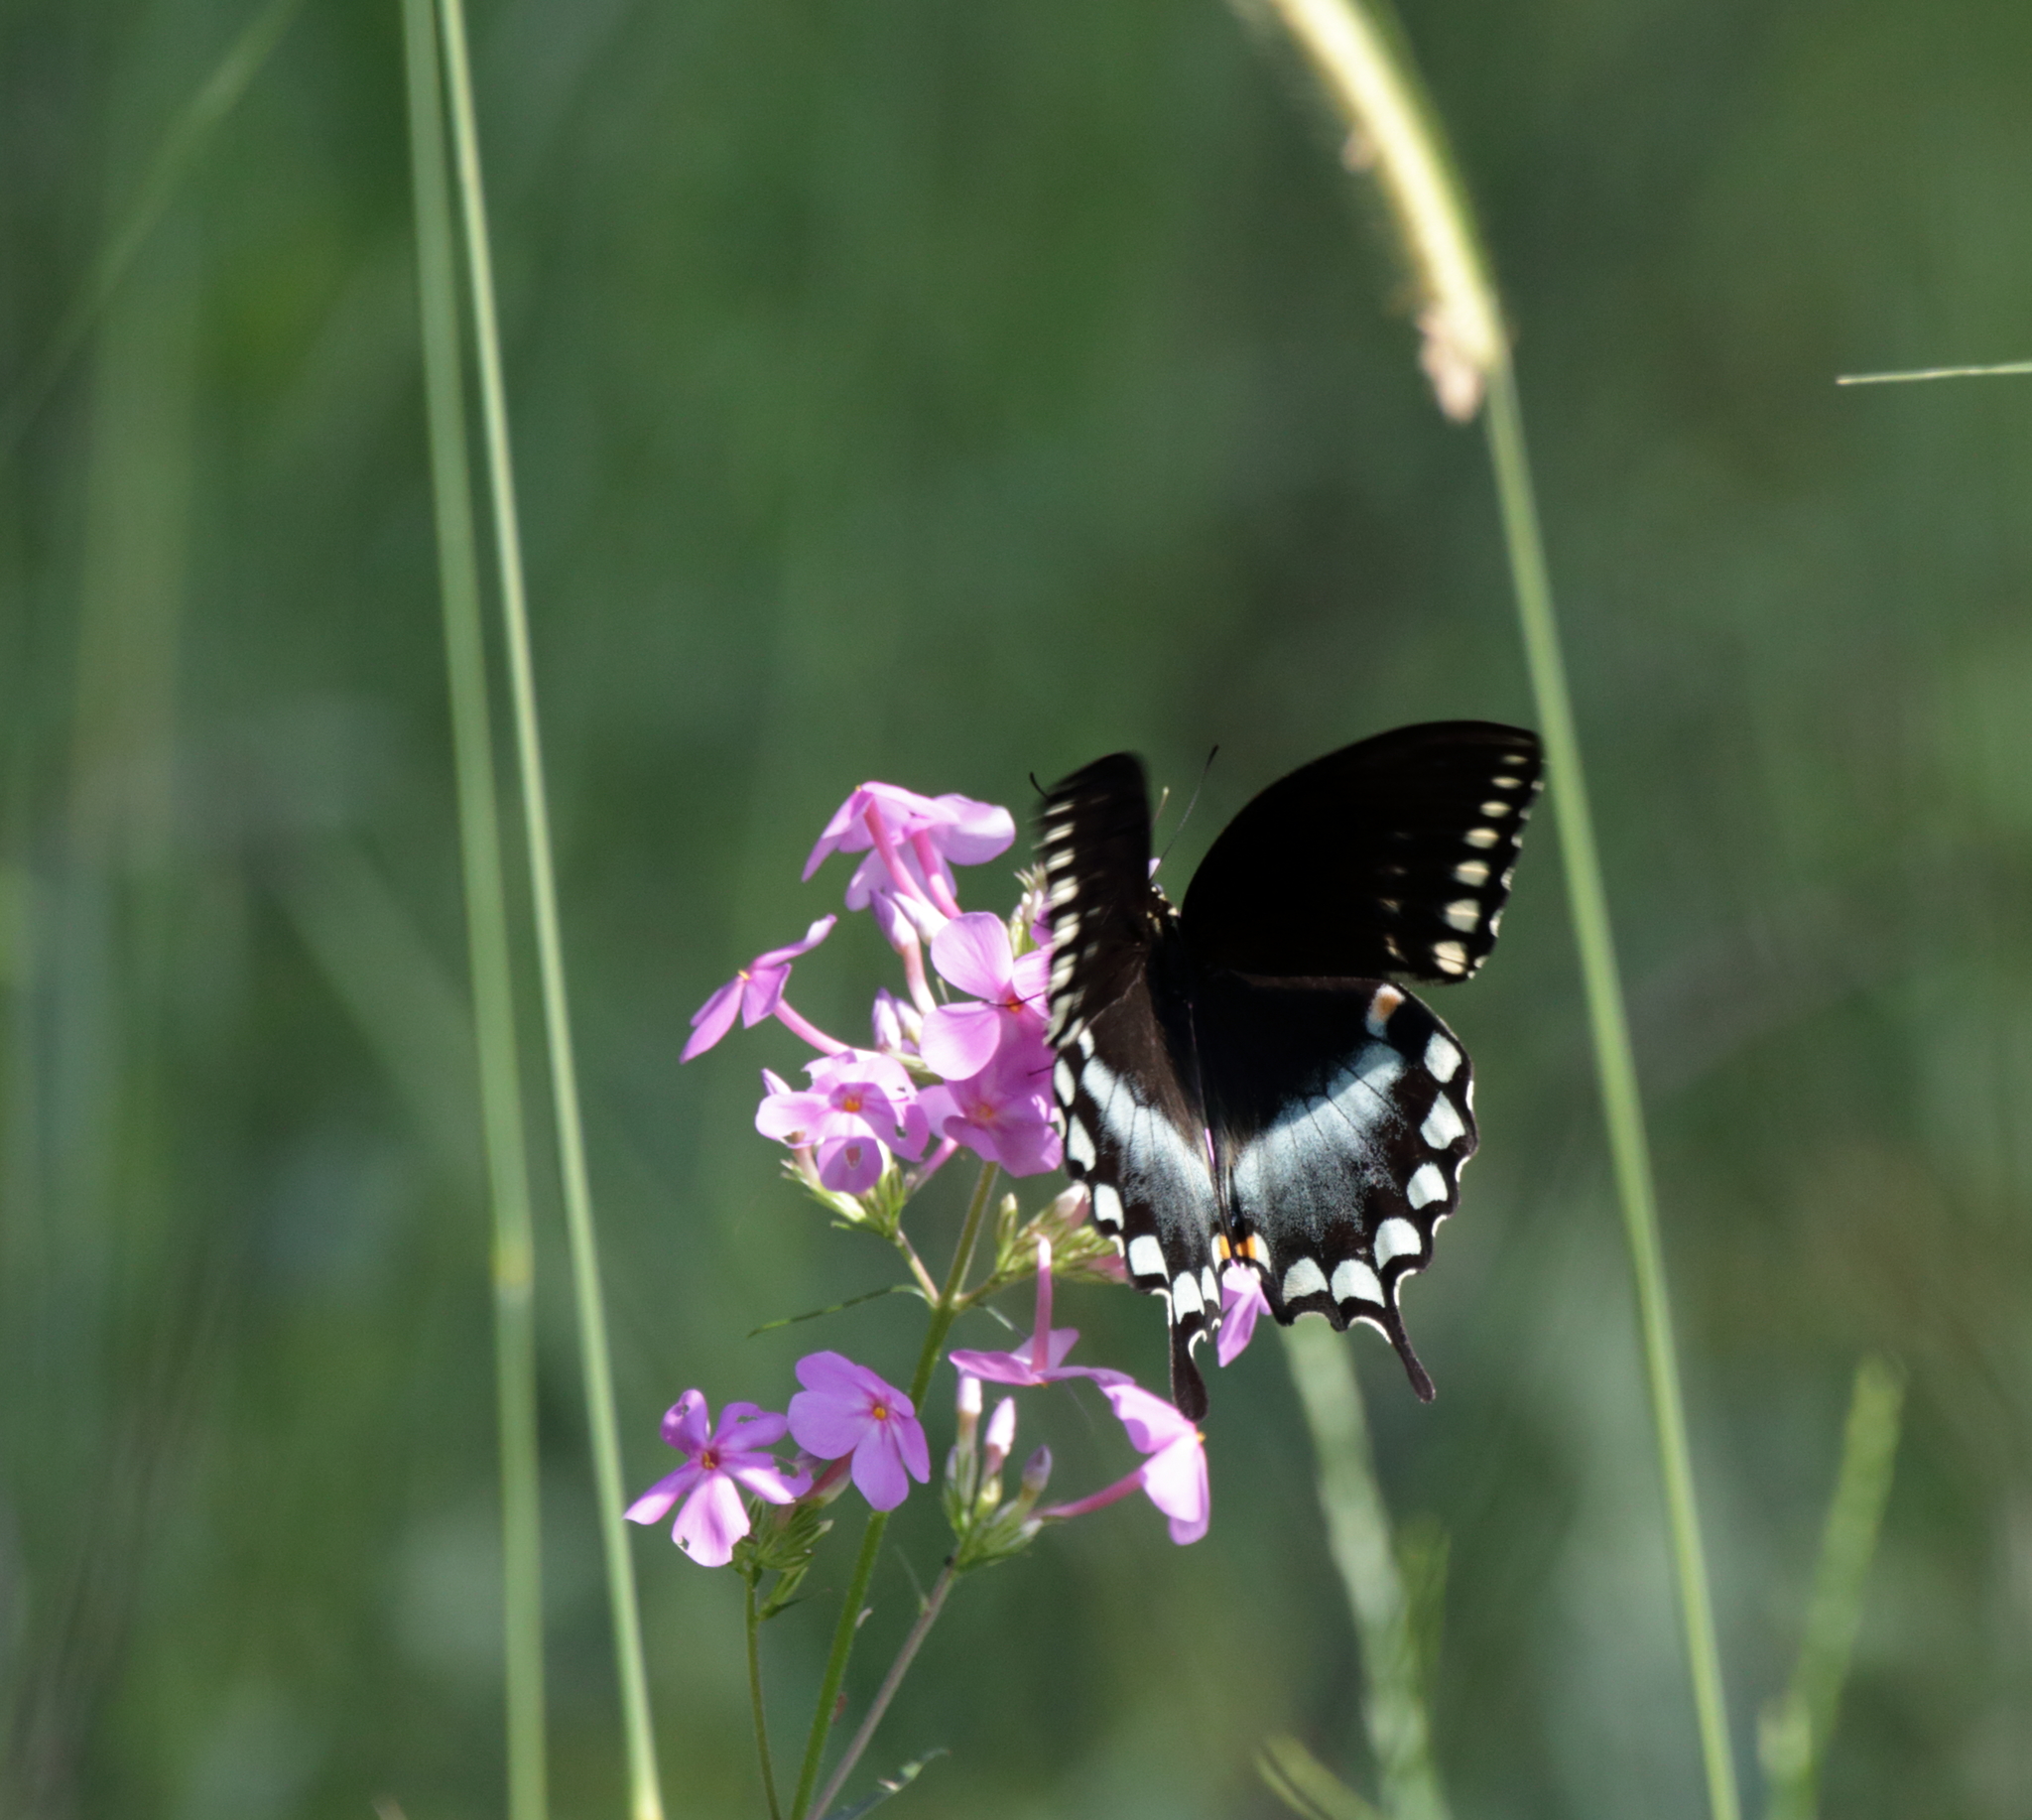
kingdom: Animalia
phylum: Arthropoda
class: Insecta
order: Lepidoptera
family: Papilionidae
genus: Papilio
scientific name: Papilio troilus
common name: Spicebush swallowtail
